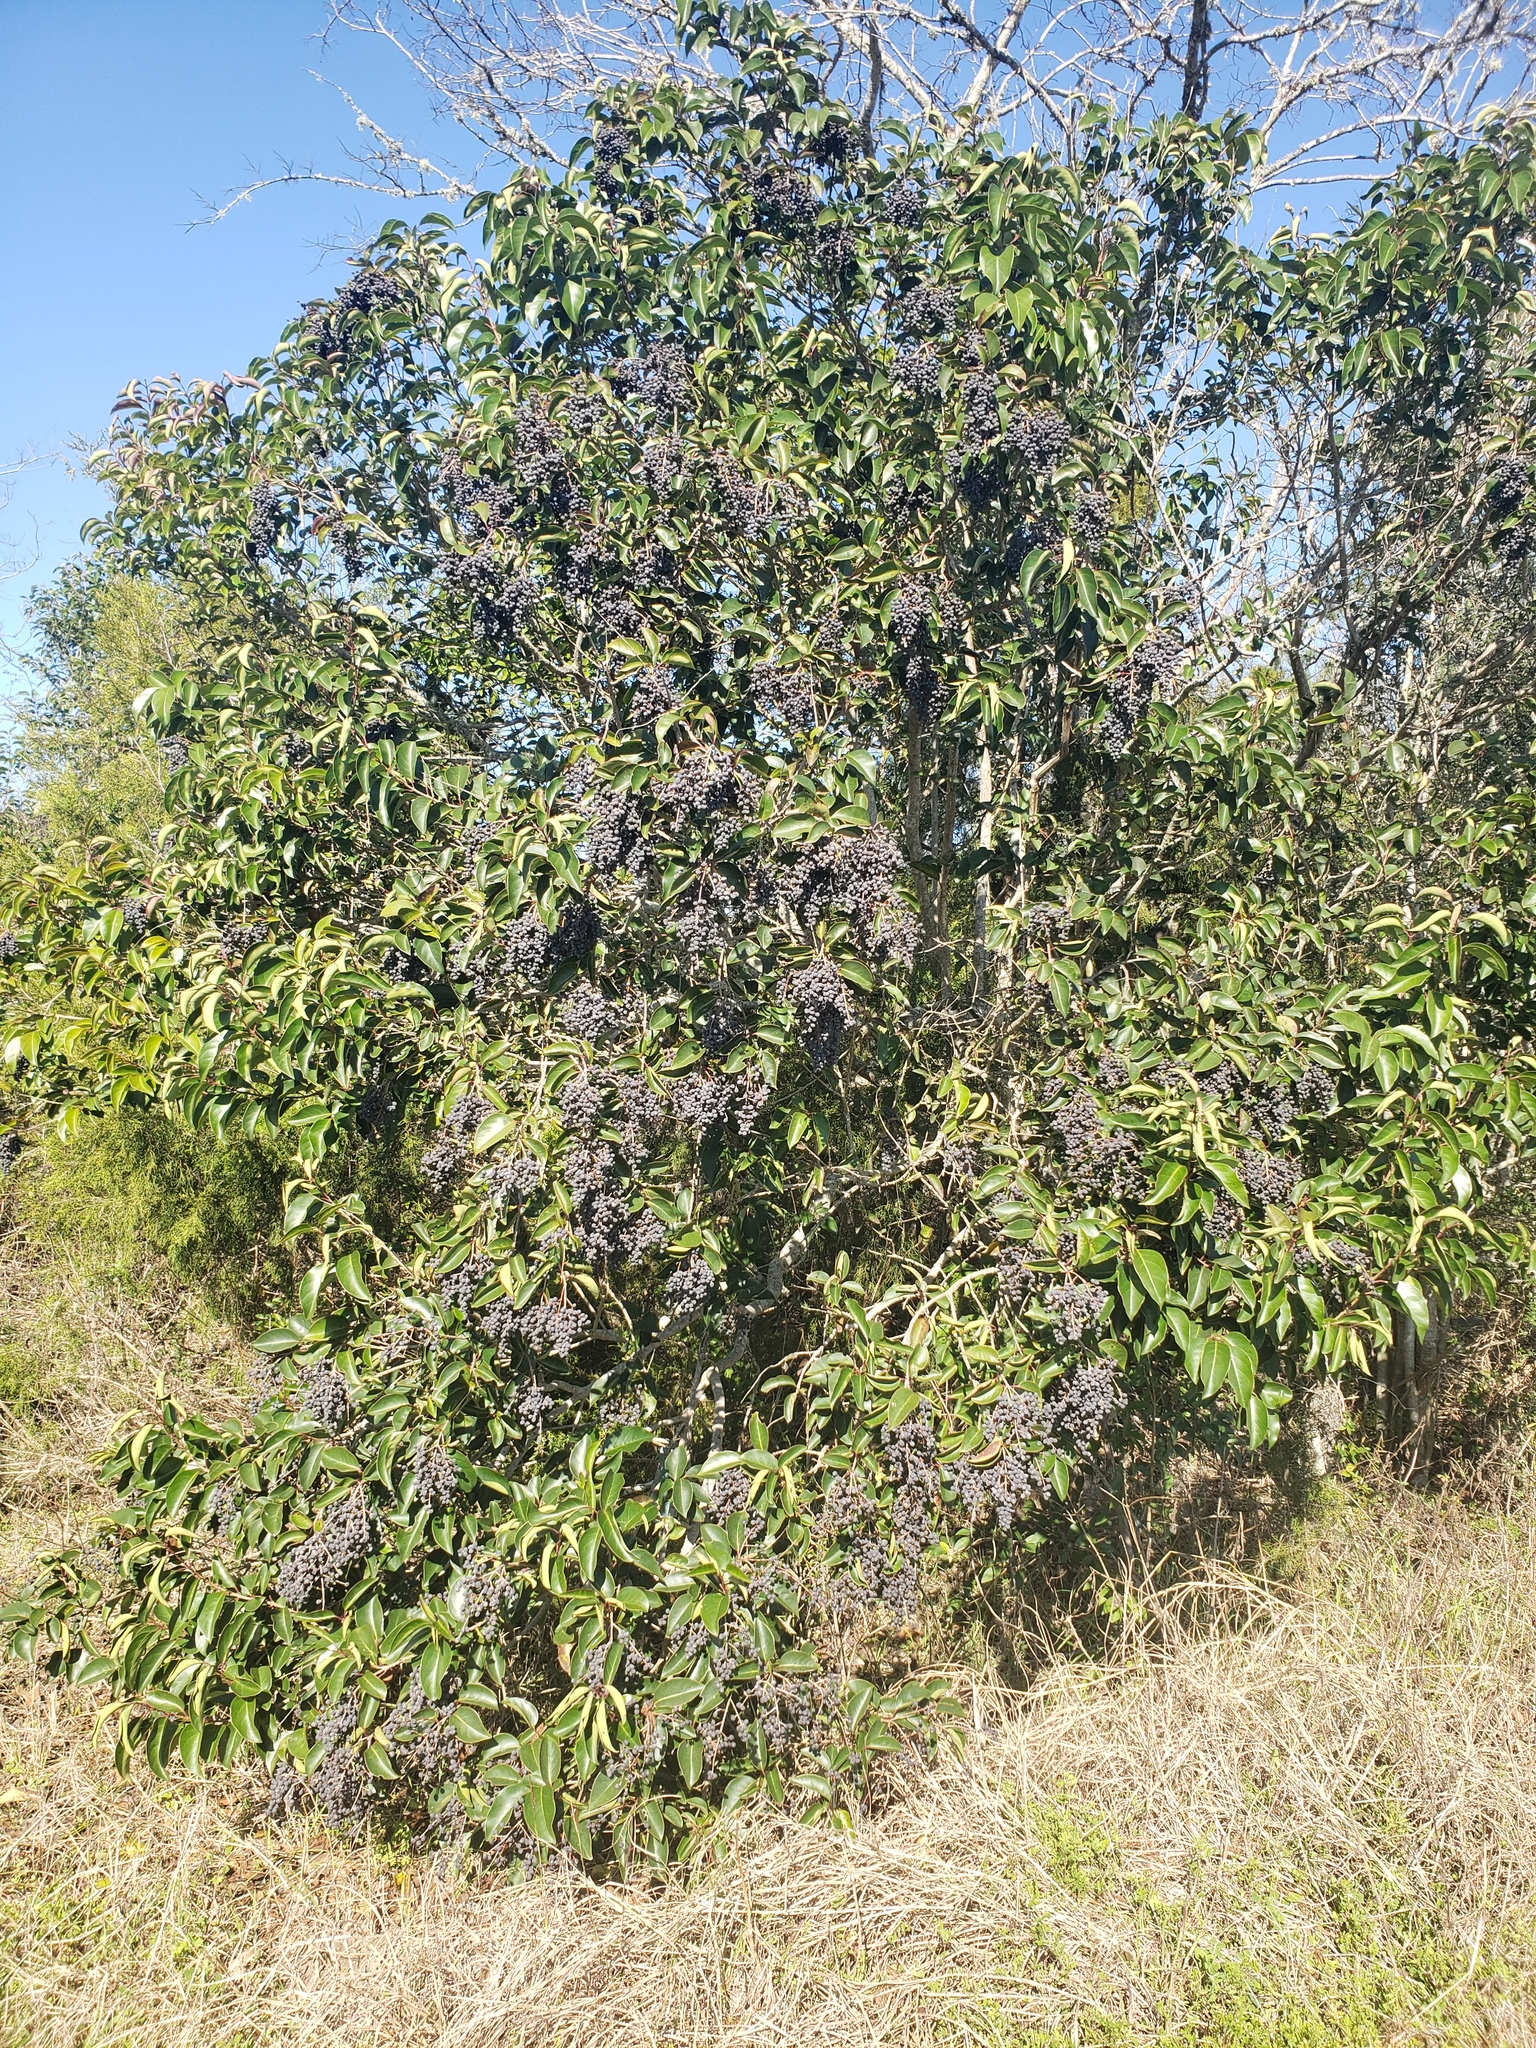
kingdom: Plantae
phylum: Tracheophyta
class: Magnoliopsida
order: Lamiales
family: Oleaceae
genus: Ligustrum
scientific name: Ligustrum lucidum
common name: Glossy privet
